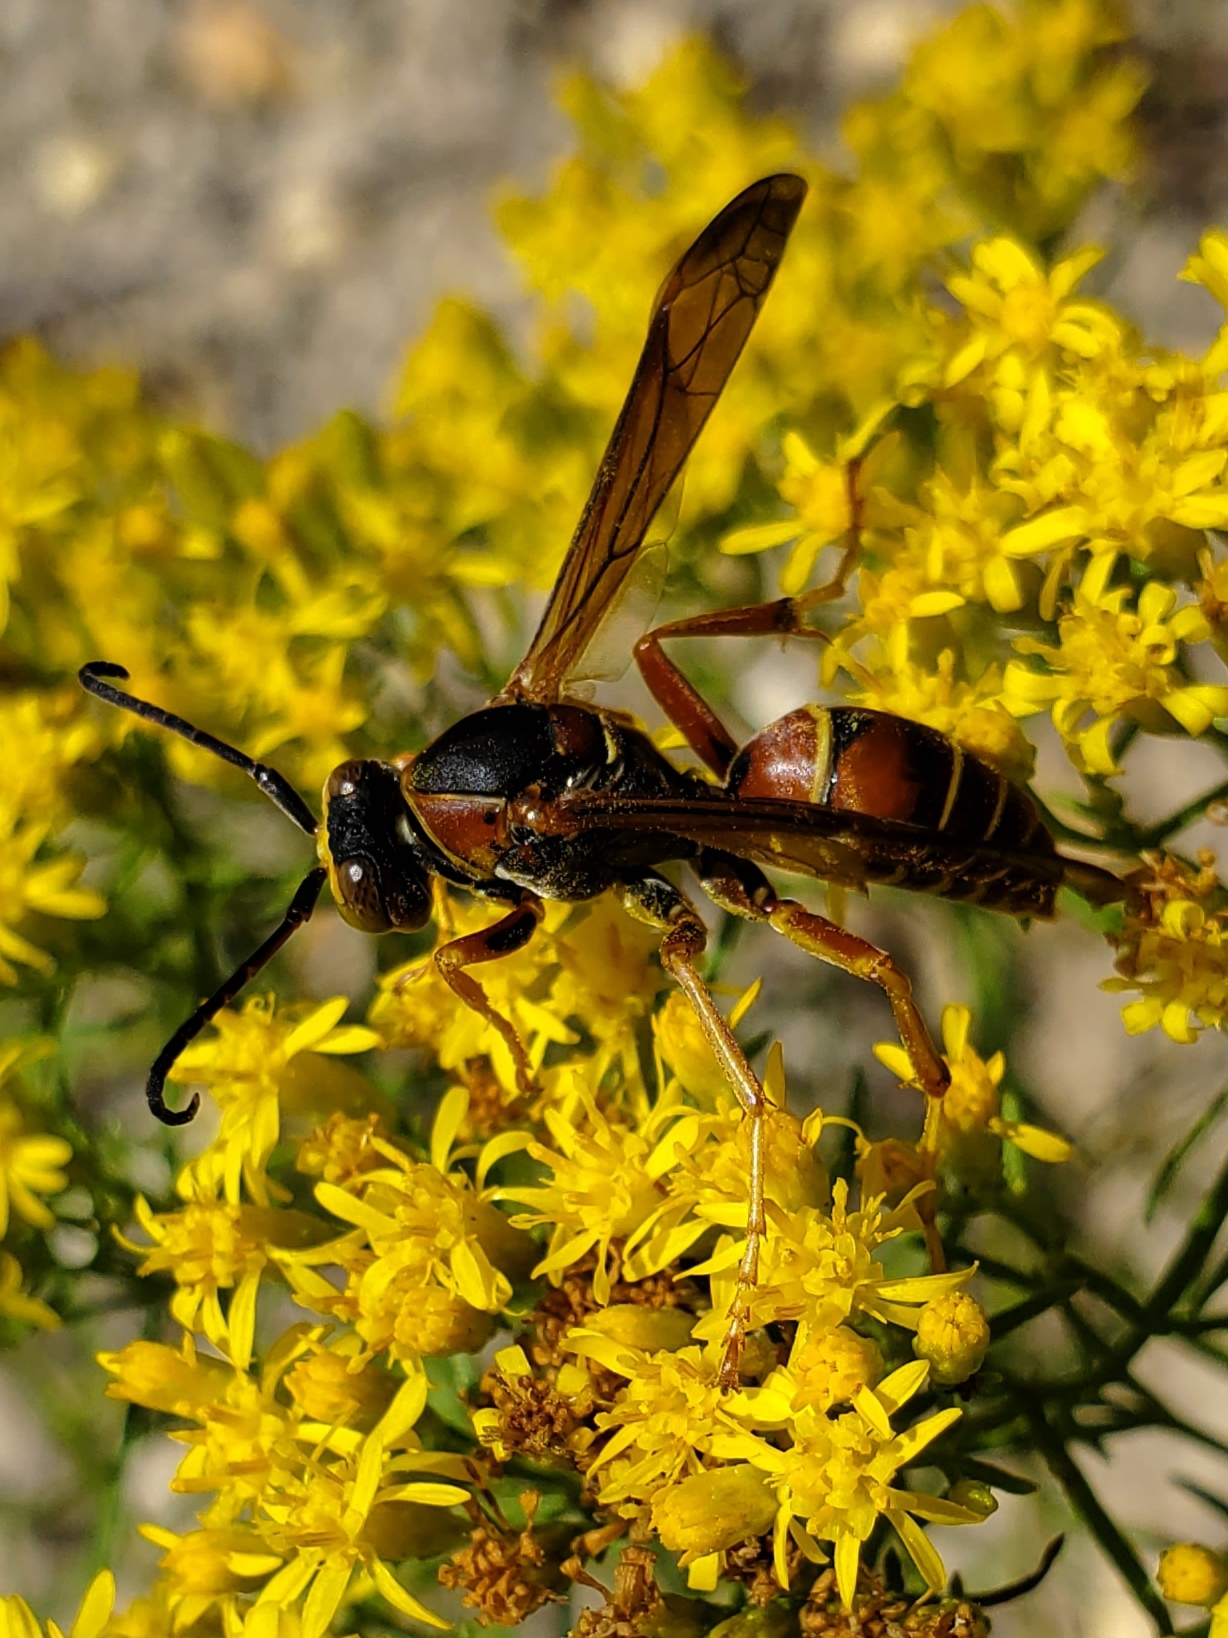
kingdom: Animalia
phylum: Arthropoda
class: Insecta
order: Hymenoptera
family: Eumenidae
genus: Polistes
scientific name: Polistes fuscatus
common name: Dark paper wasp
